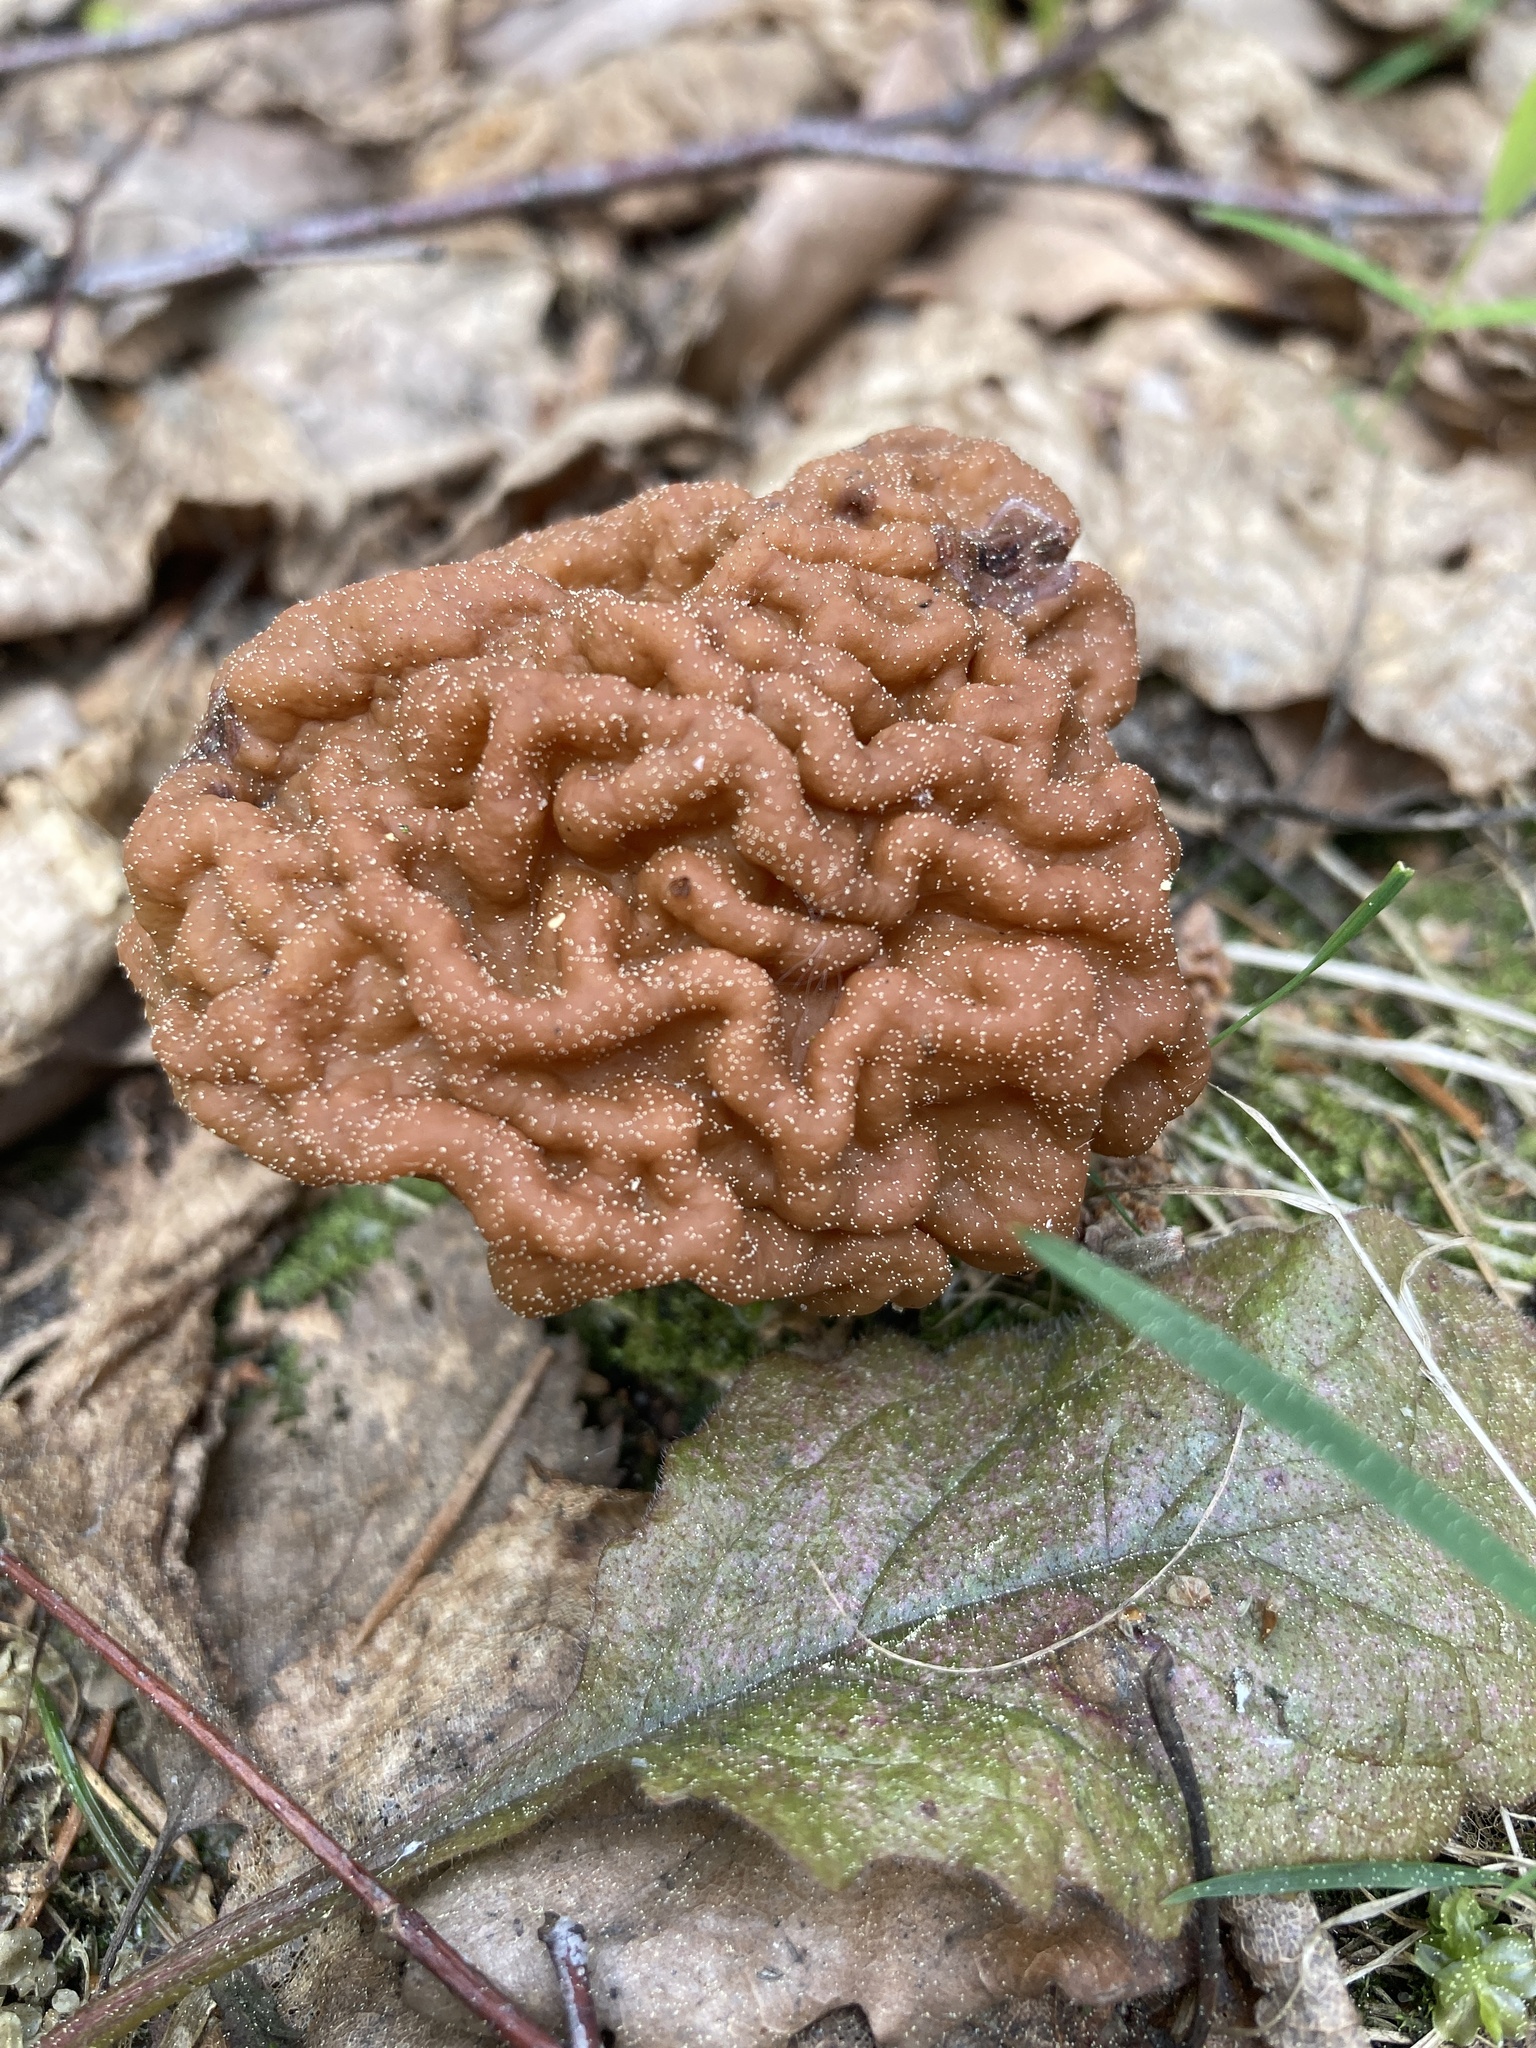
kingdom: Fungi
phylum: Ascomycota
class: Pezizomycetes
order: Pezizales
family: Discinaceae
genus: Gyromitra
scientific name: Gyromitra gigas
